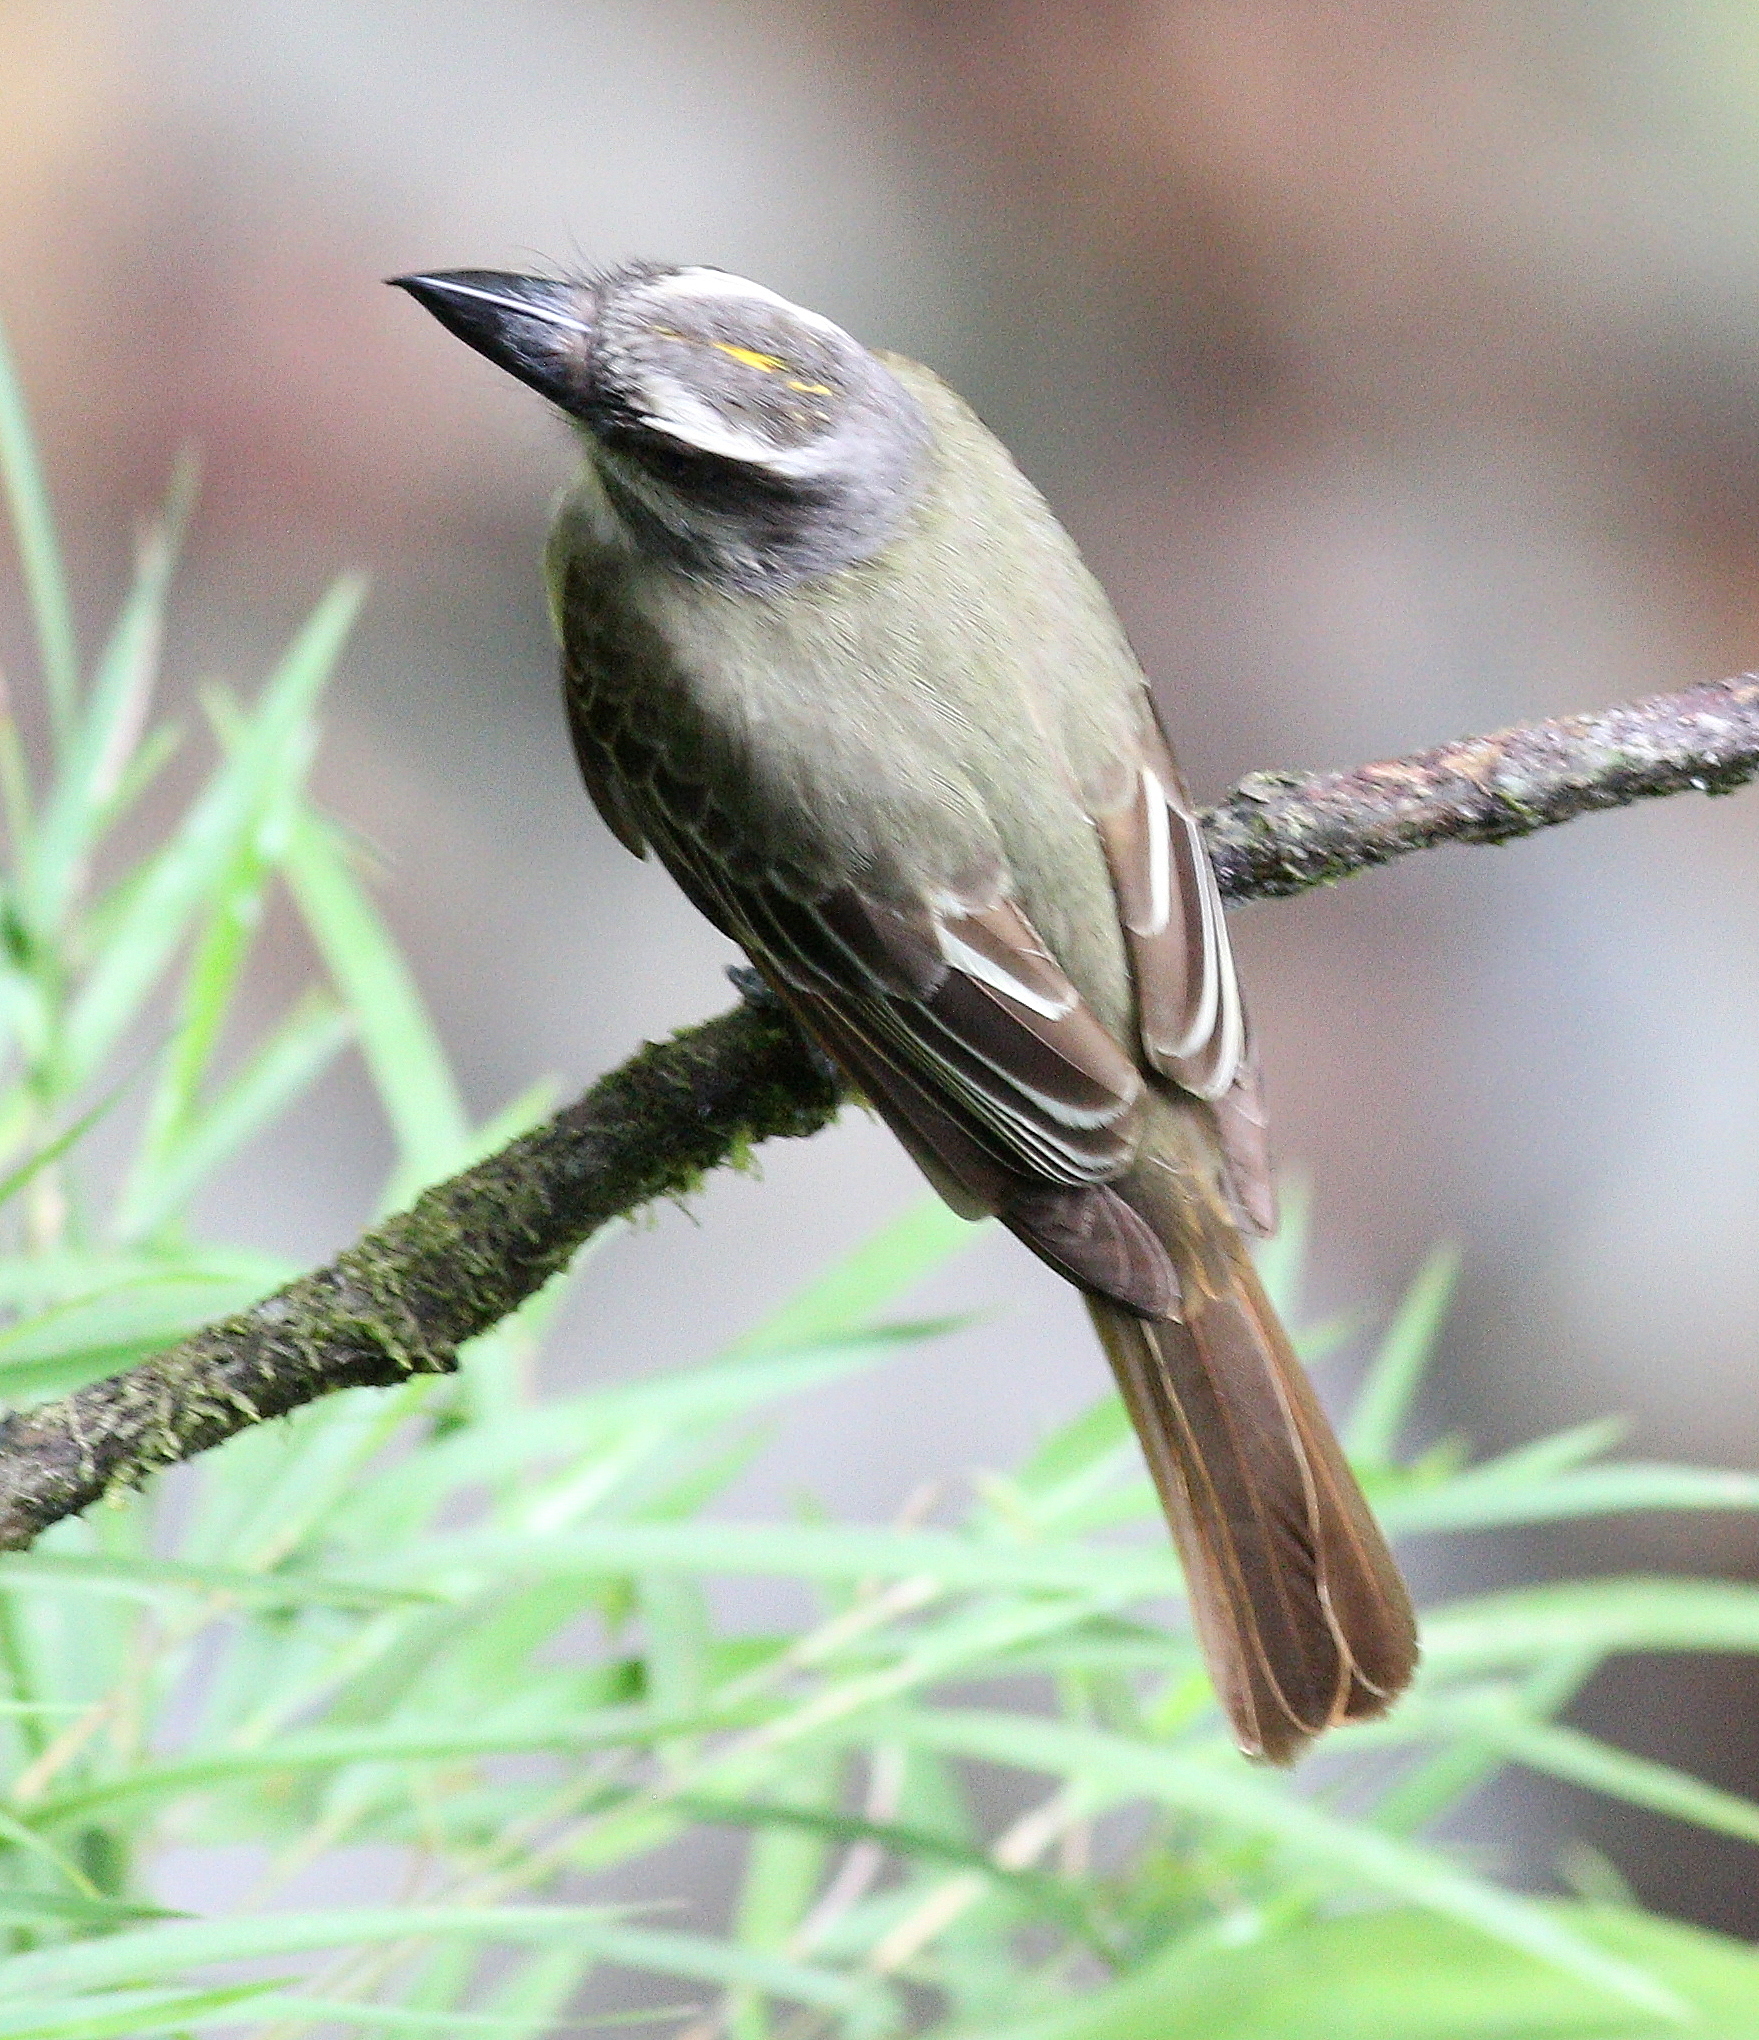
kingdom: Animalia
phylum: Chordata
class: Aves
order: Passeriformes
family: Tyrannidae
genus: Myiodynastes
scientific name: Myiodynastes chrysocephalus
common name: Golden-crowned flycatcher
